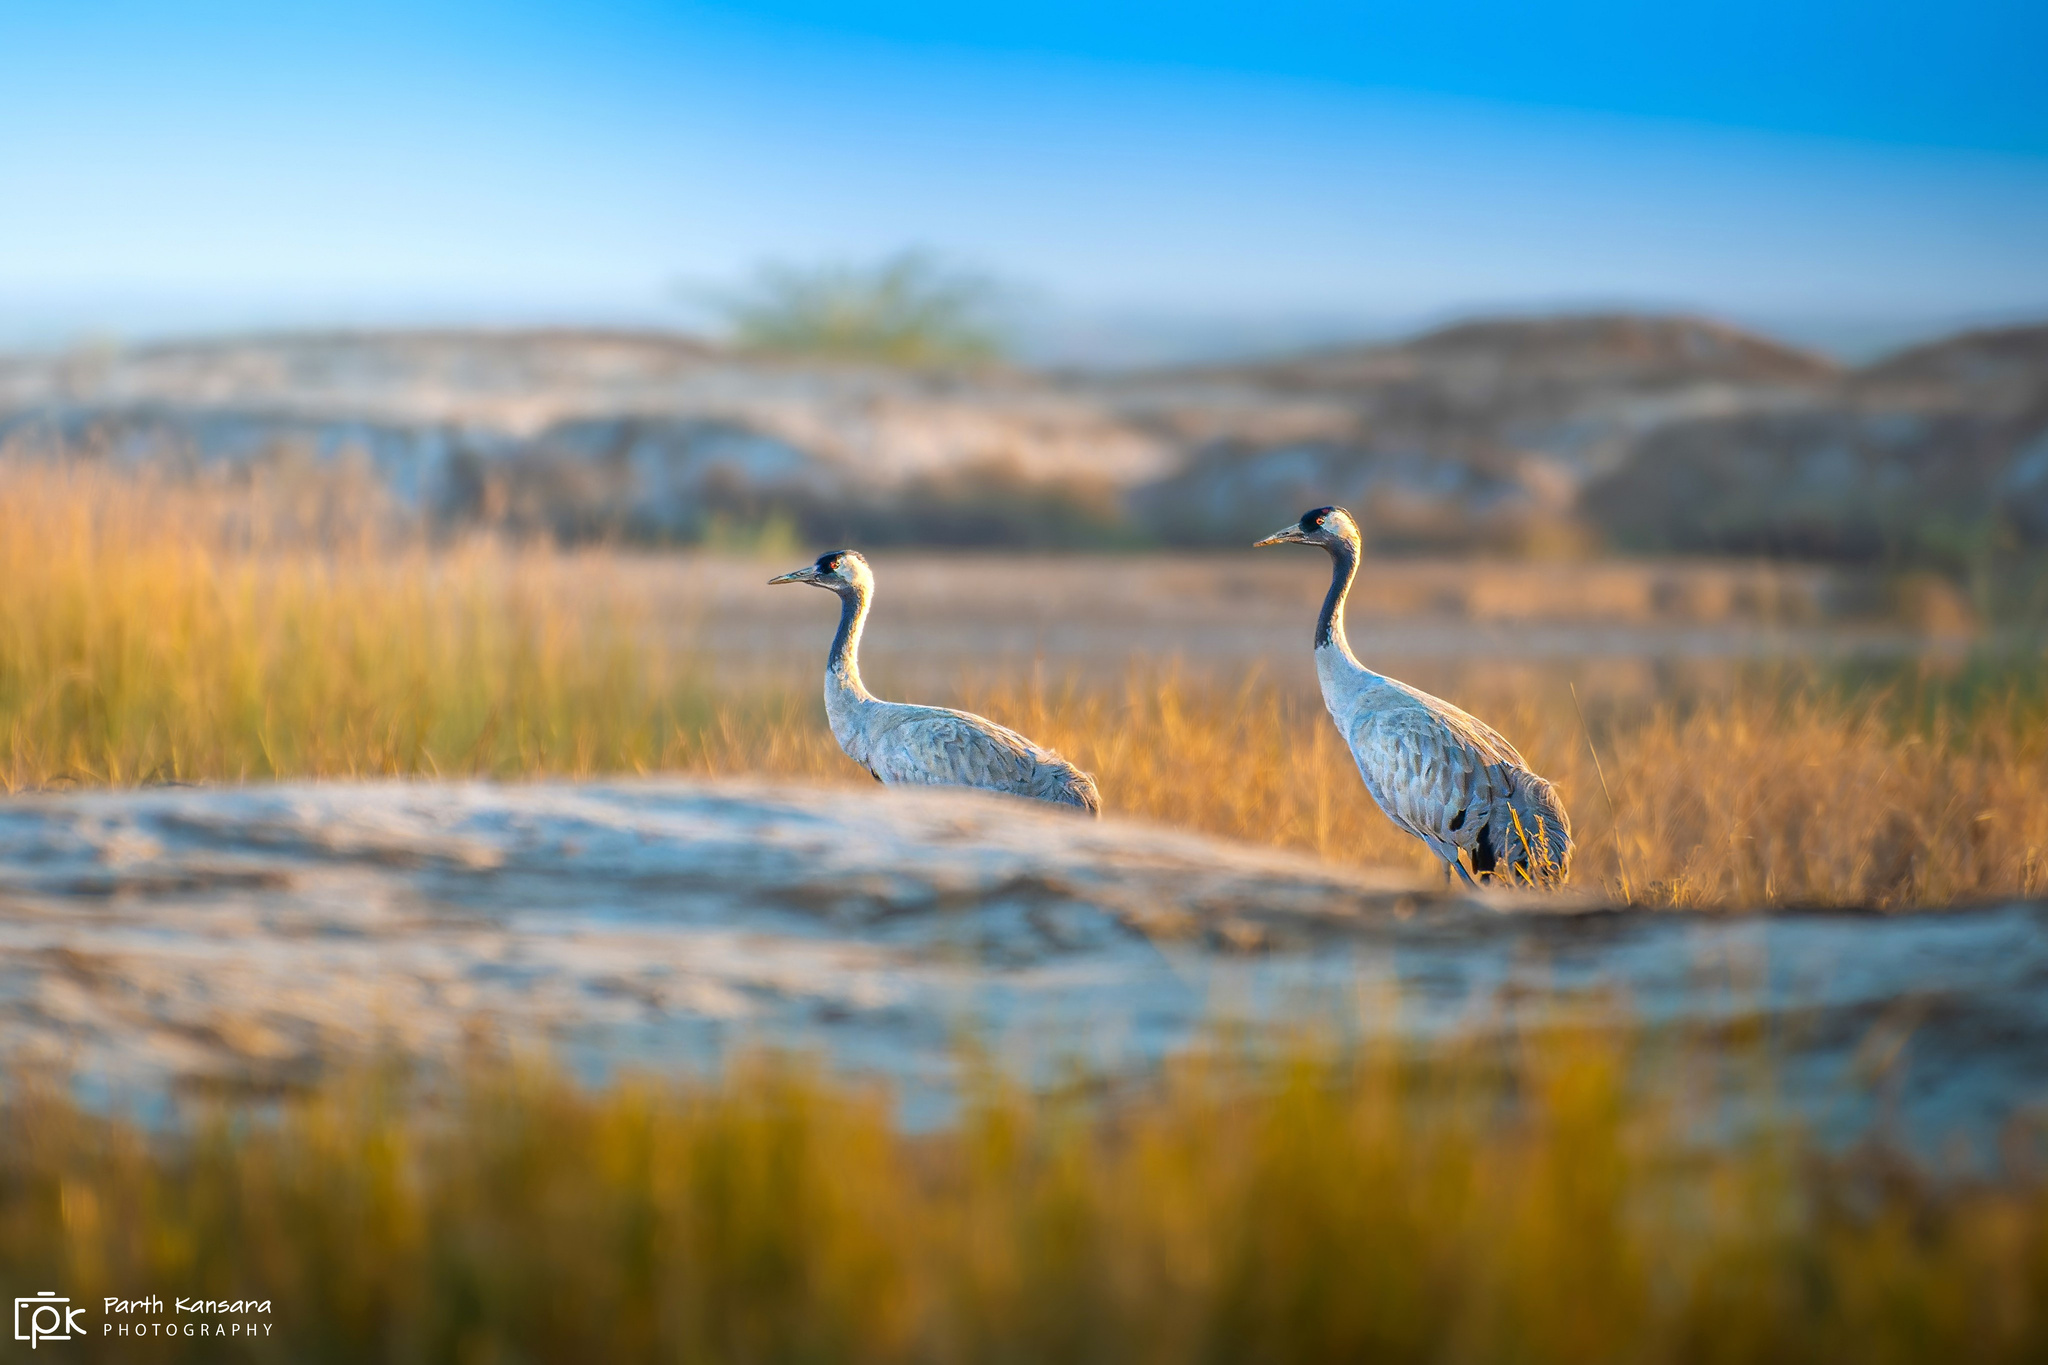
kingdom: Animalia
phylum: Chordata
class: Aves
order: Gruiformes
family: Gruidae
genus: Grus
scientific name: Grus grus
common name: Common crane
